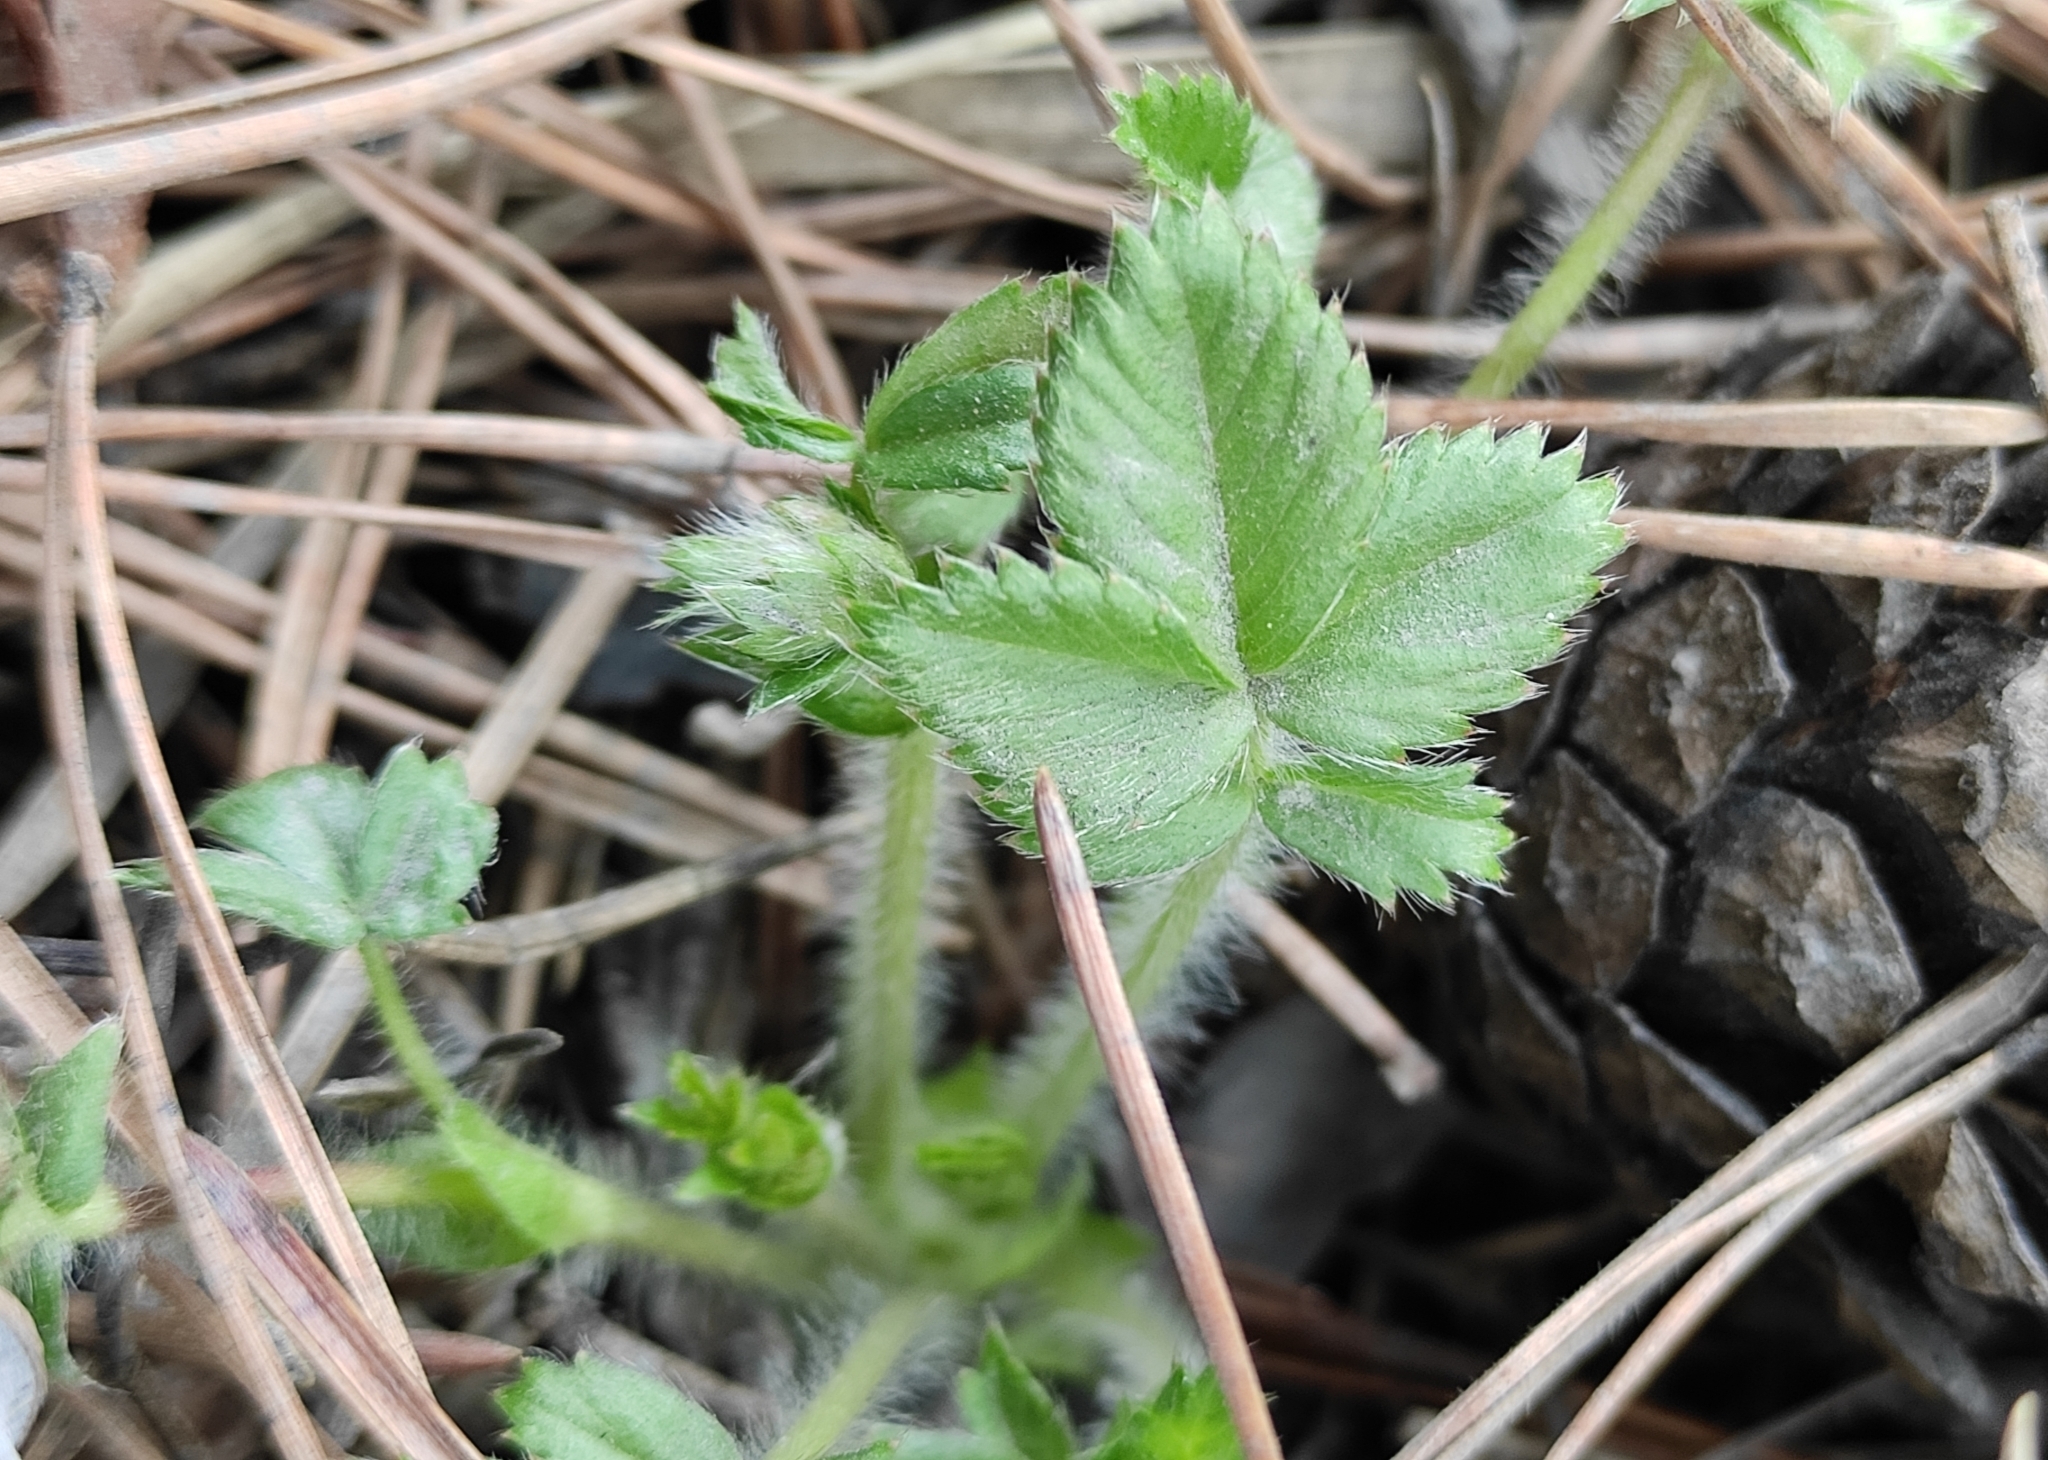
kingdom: Plantae
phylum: Tracheophyta
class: Magnoliopsida
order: Rosales
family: Rosaceae
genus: Potentilla
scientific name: Potentilla fragarioides
